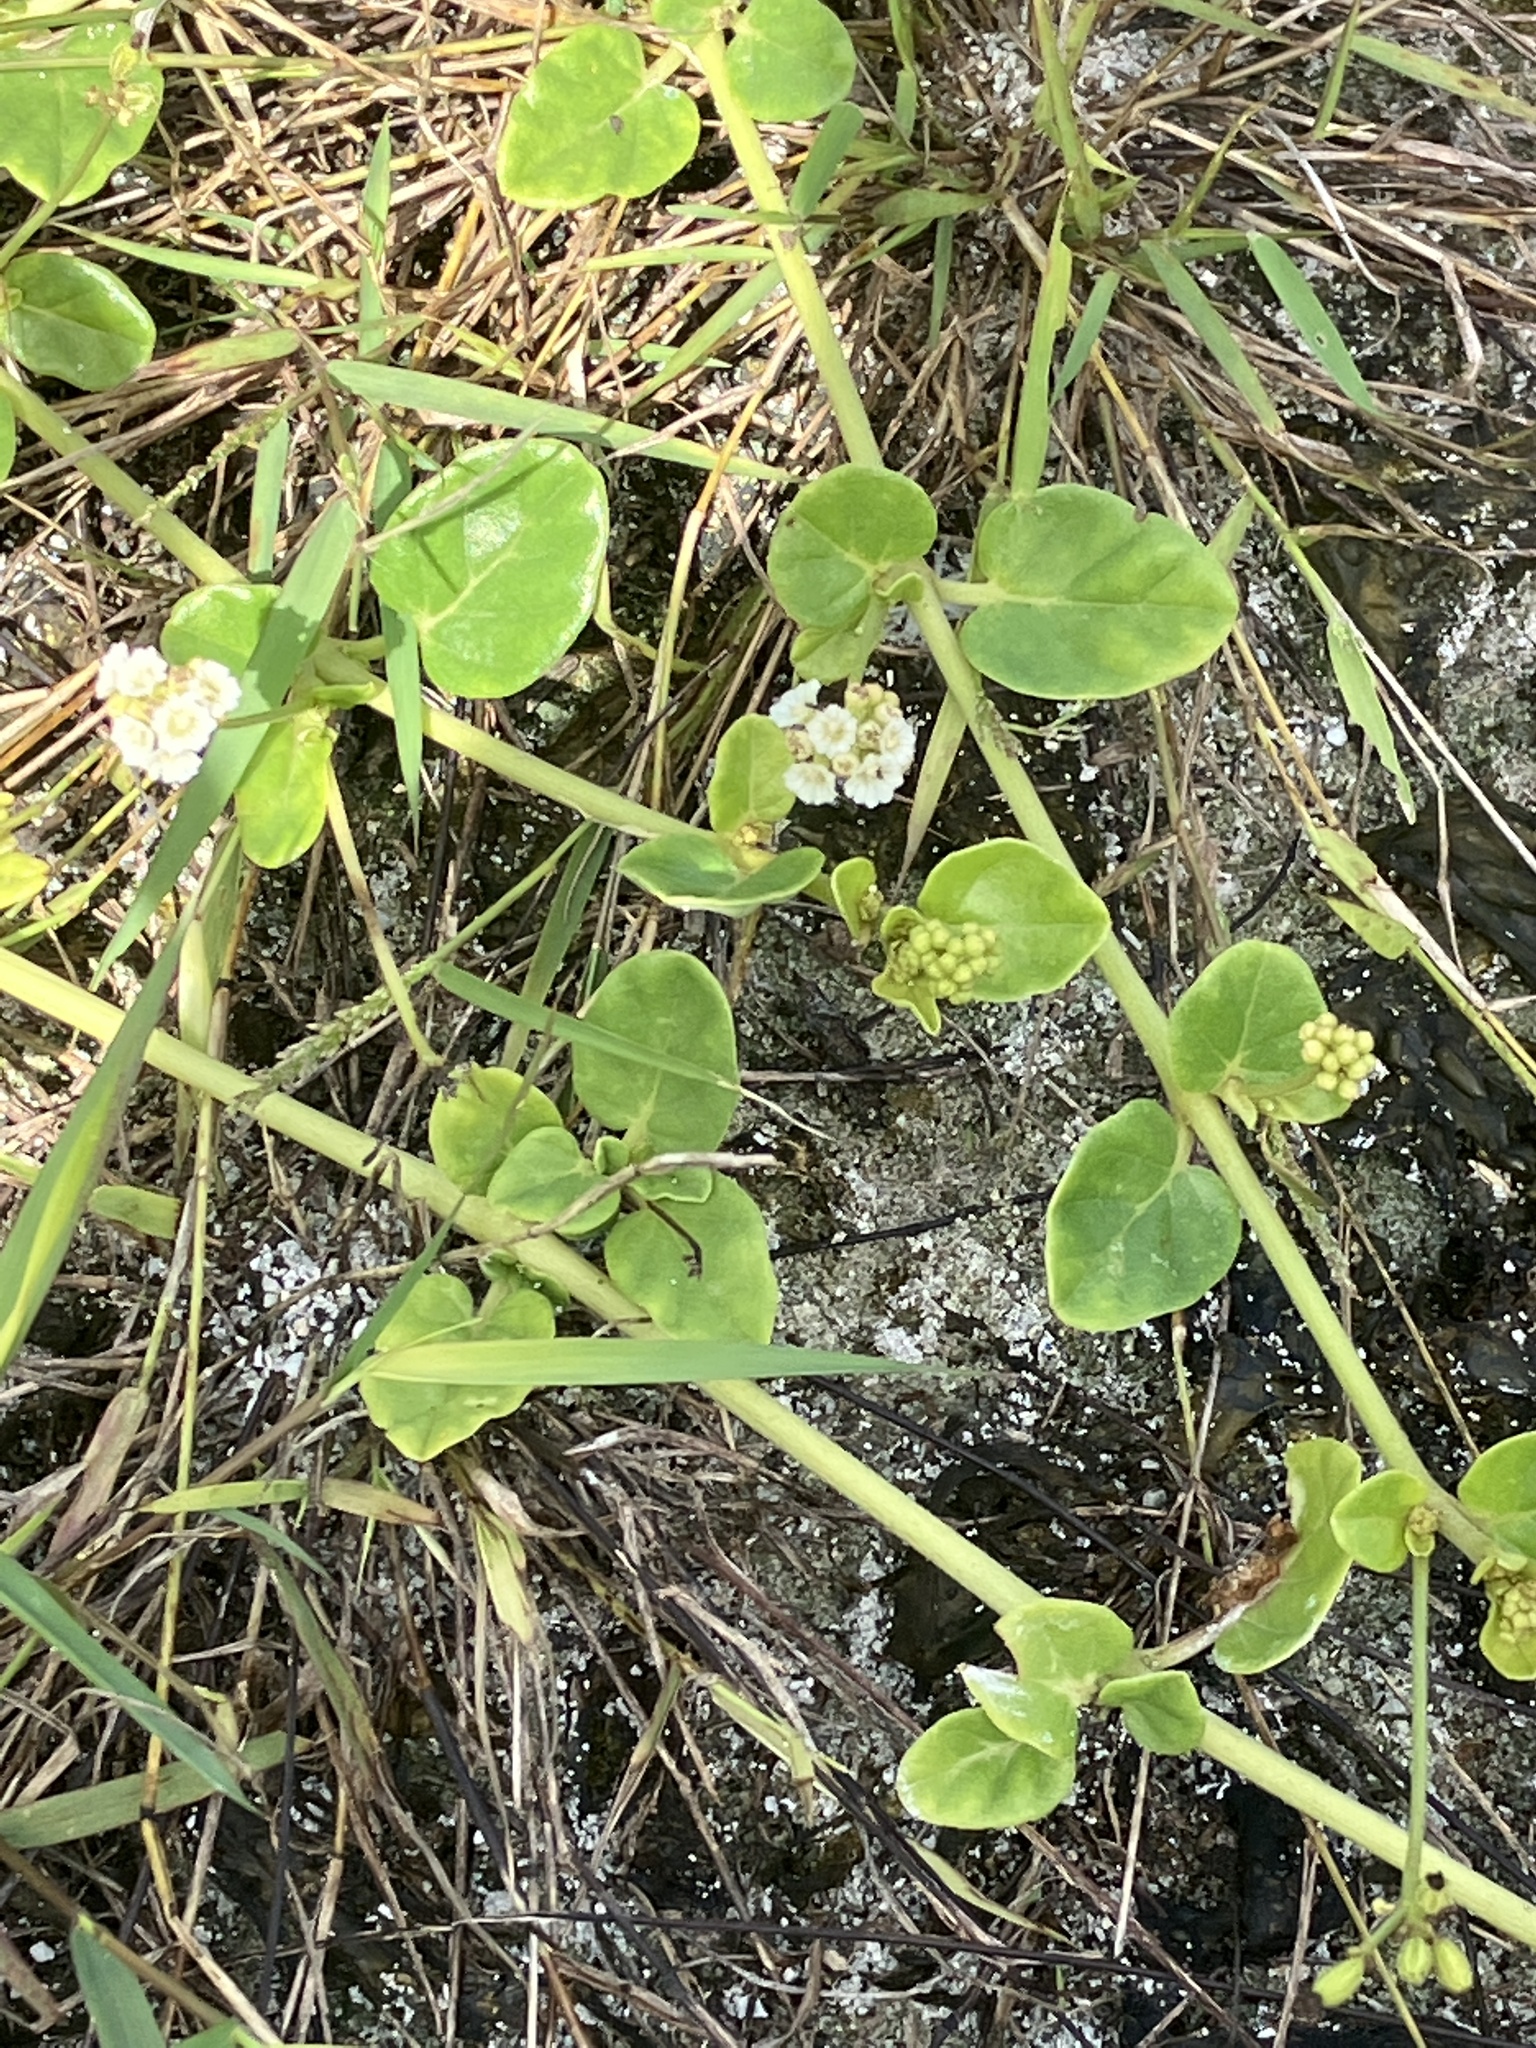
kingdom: Plantae
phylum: Tracheophyta
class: Magnoliopsida
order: Caryophyllales
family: Nyctaginaceae
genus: Boerhavia
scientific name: Boerhavia repens
